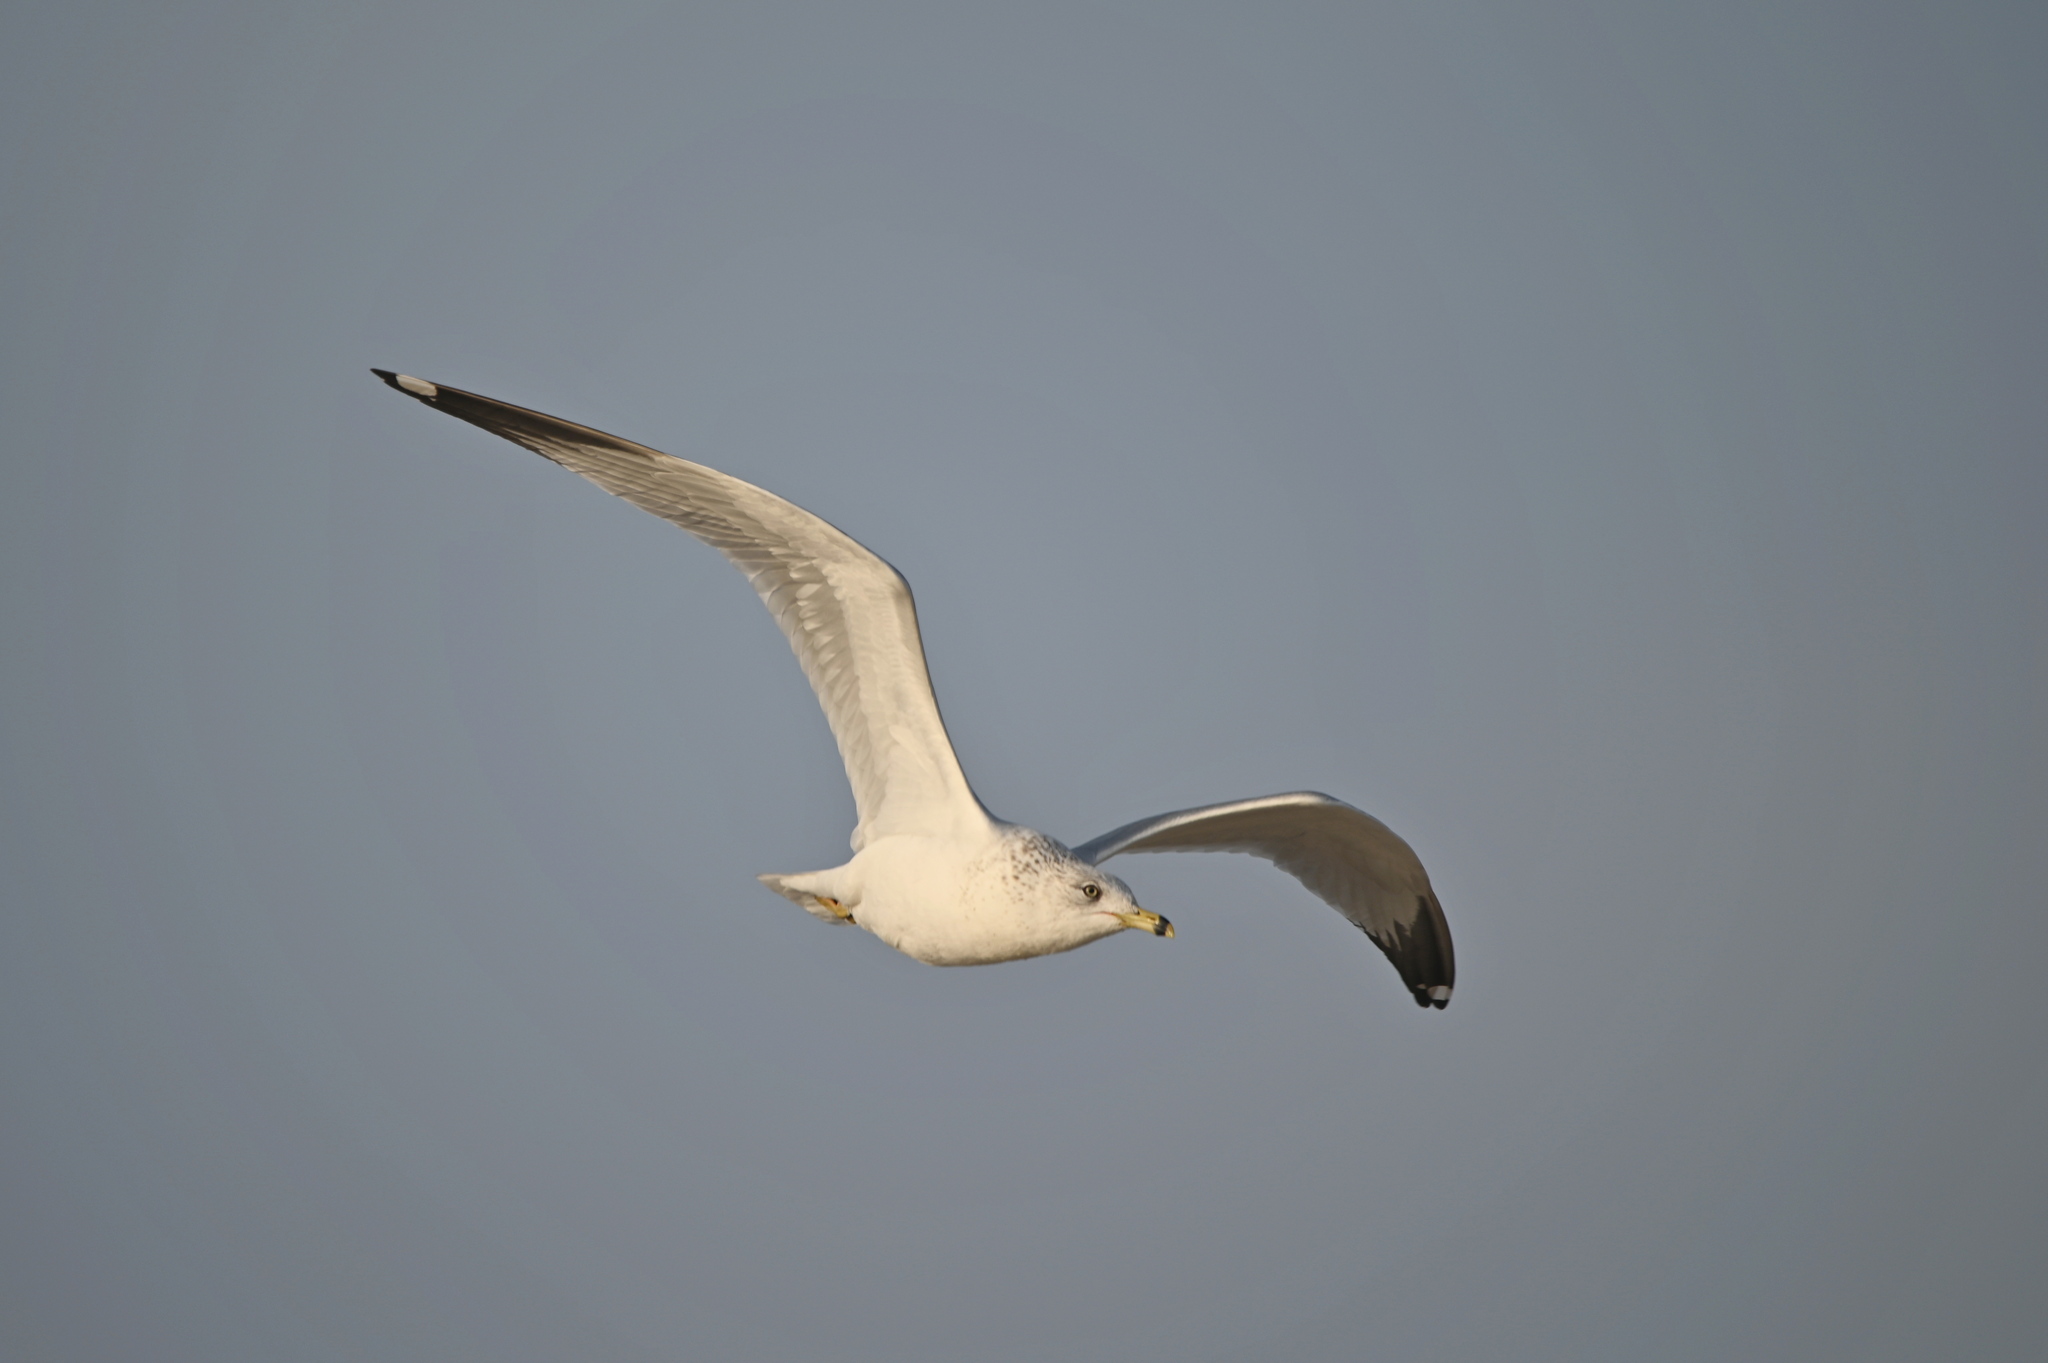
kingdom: Animalia
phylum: Chordata
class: Aves
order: Charadriiformes
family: Laridae
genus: Larus
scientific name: Larus delawarensis
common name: Ring-billed gull
